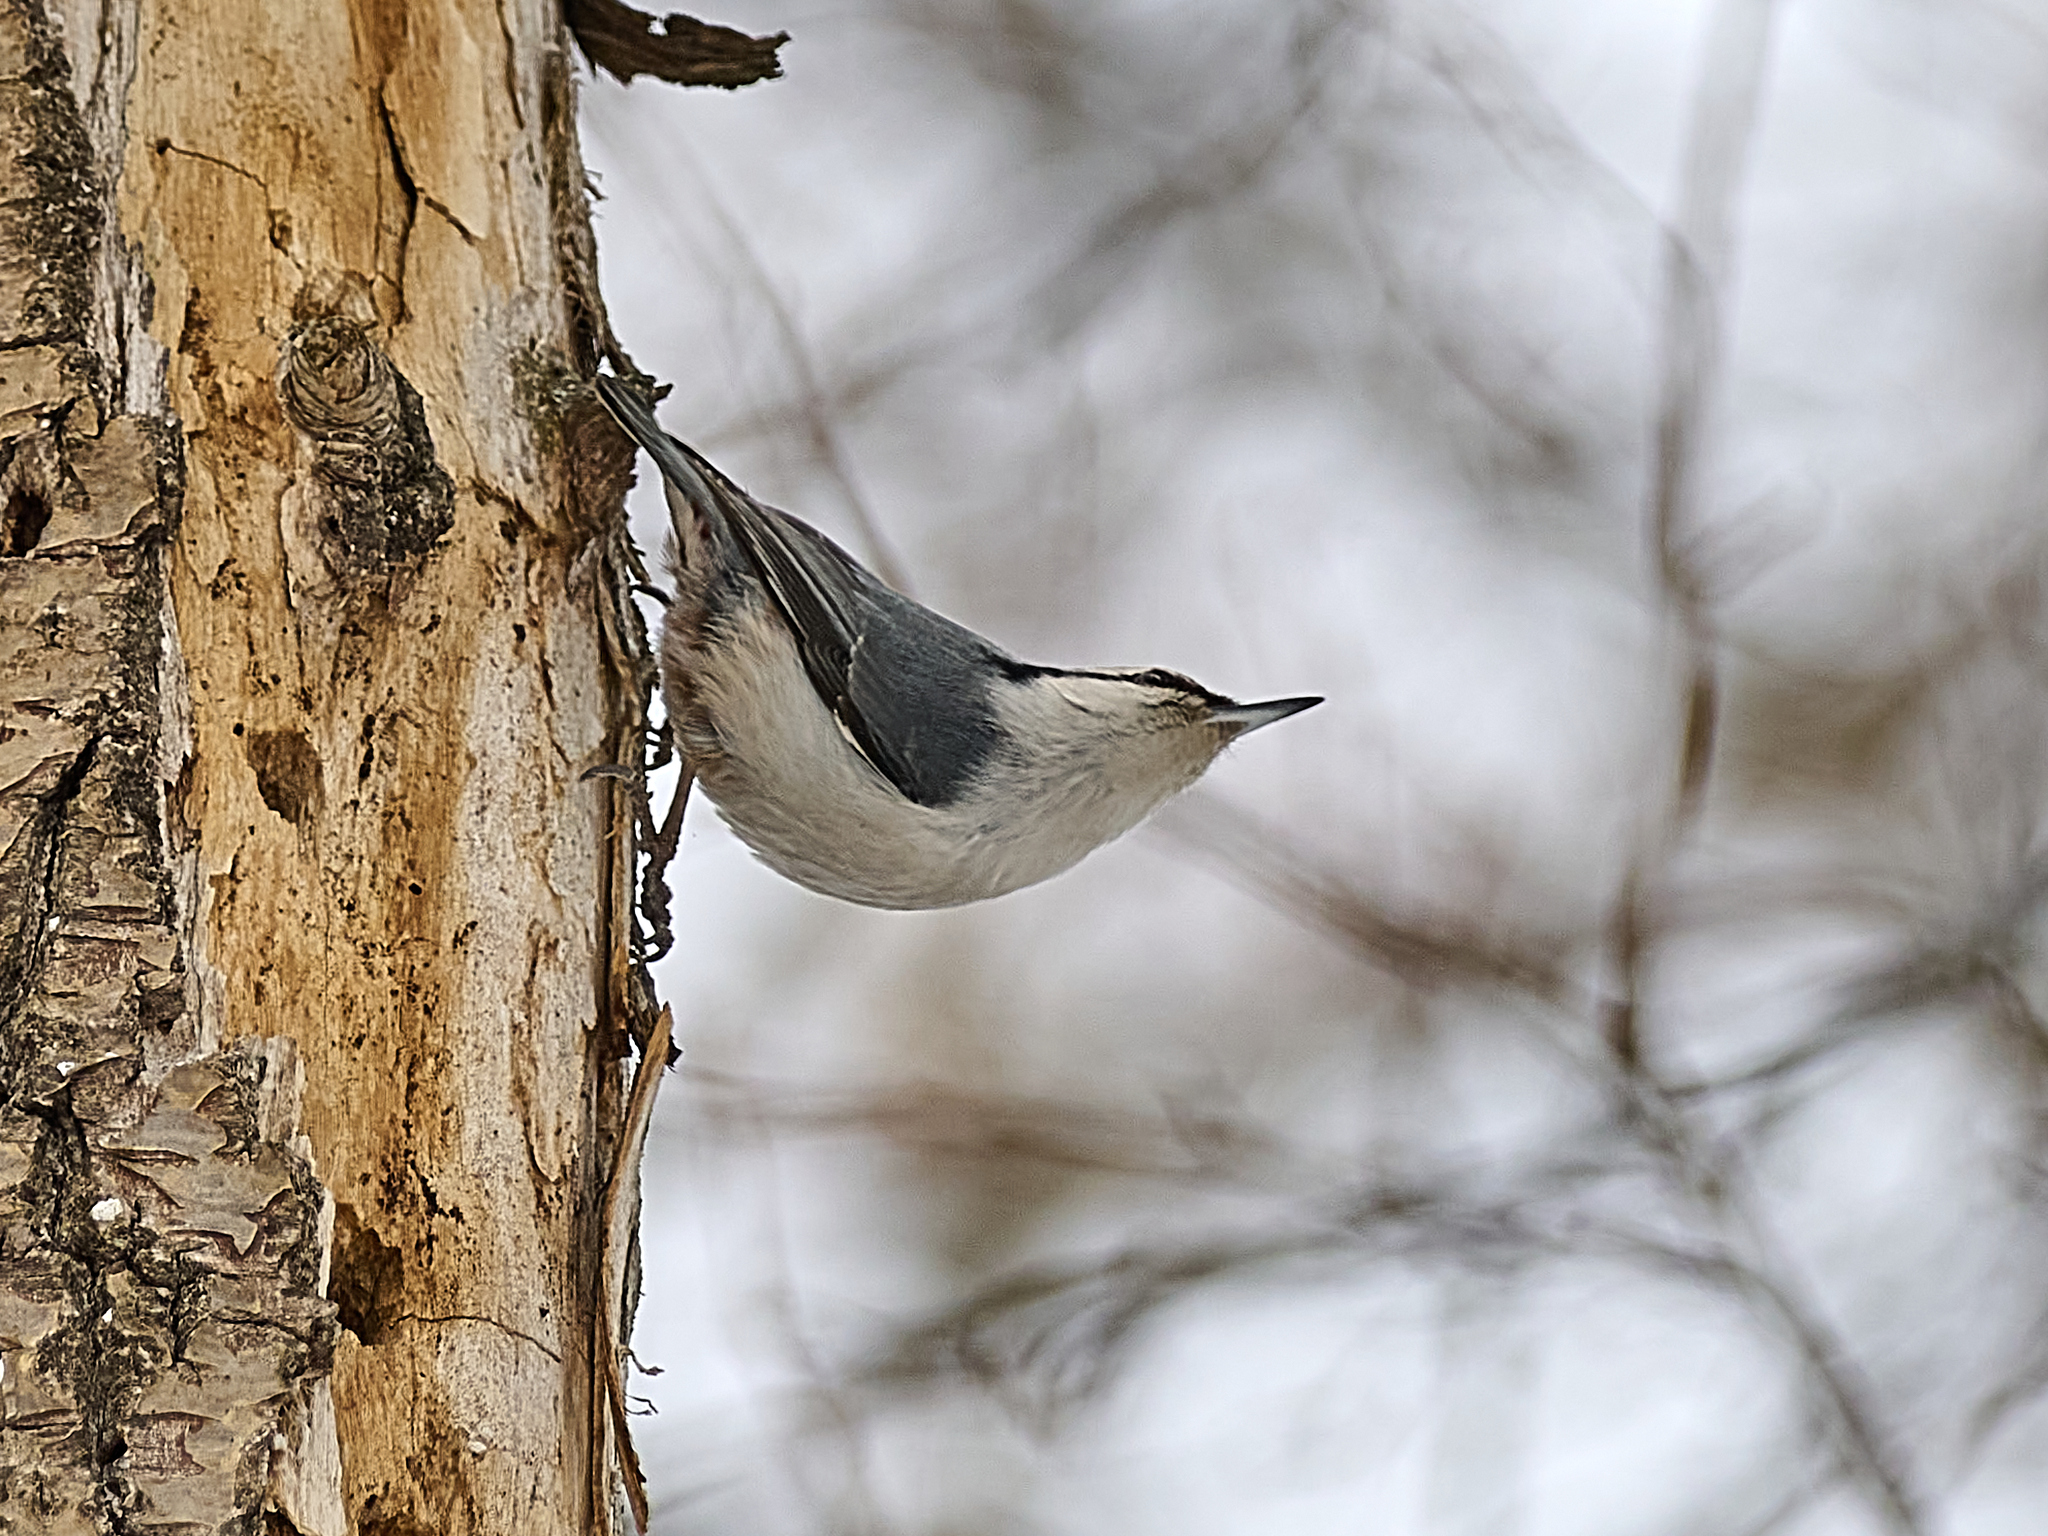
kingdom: Animalia
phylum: Chordata
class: Aves
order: Passeriformes
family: Sittidae
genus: Sitta
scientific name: Sitta europaea
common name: Eurasian nuthatch
